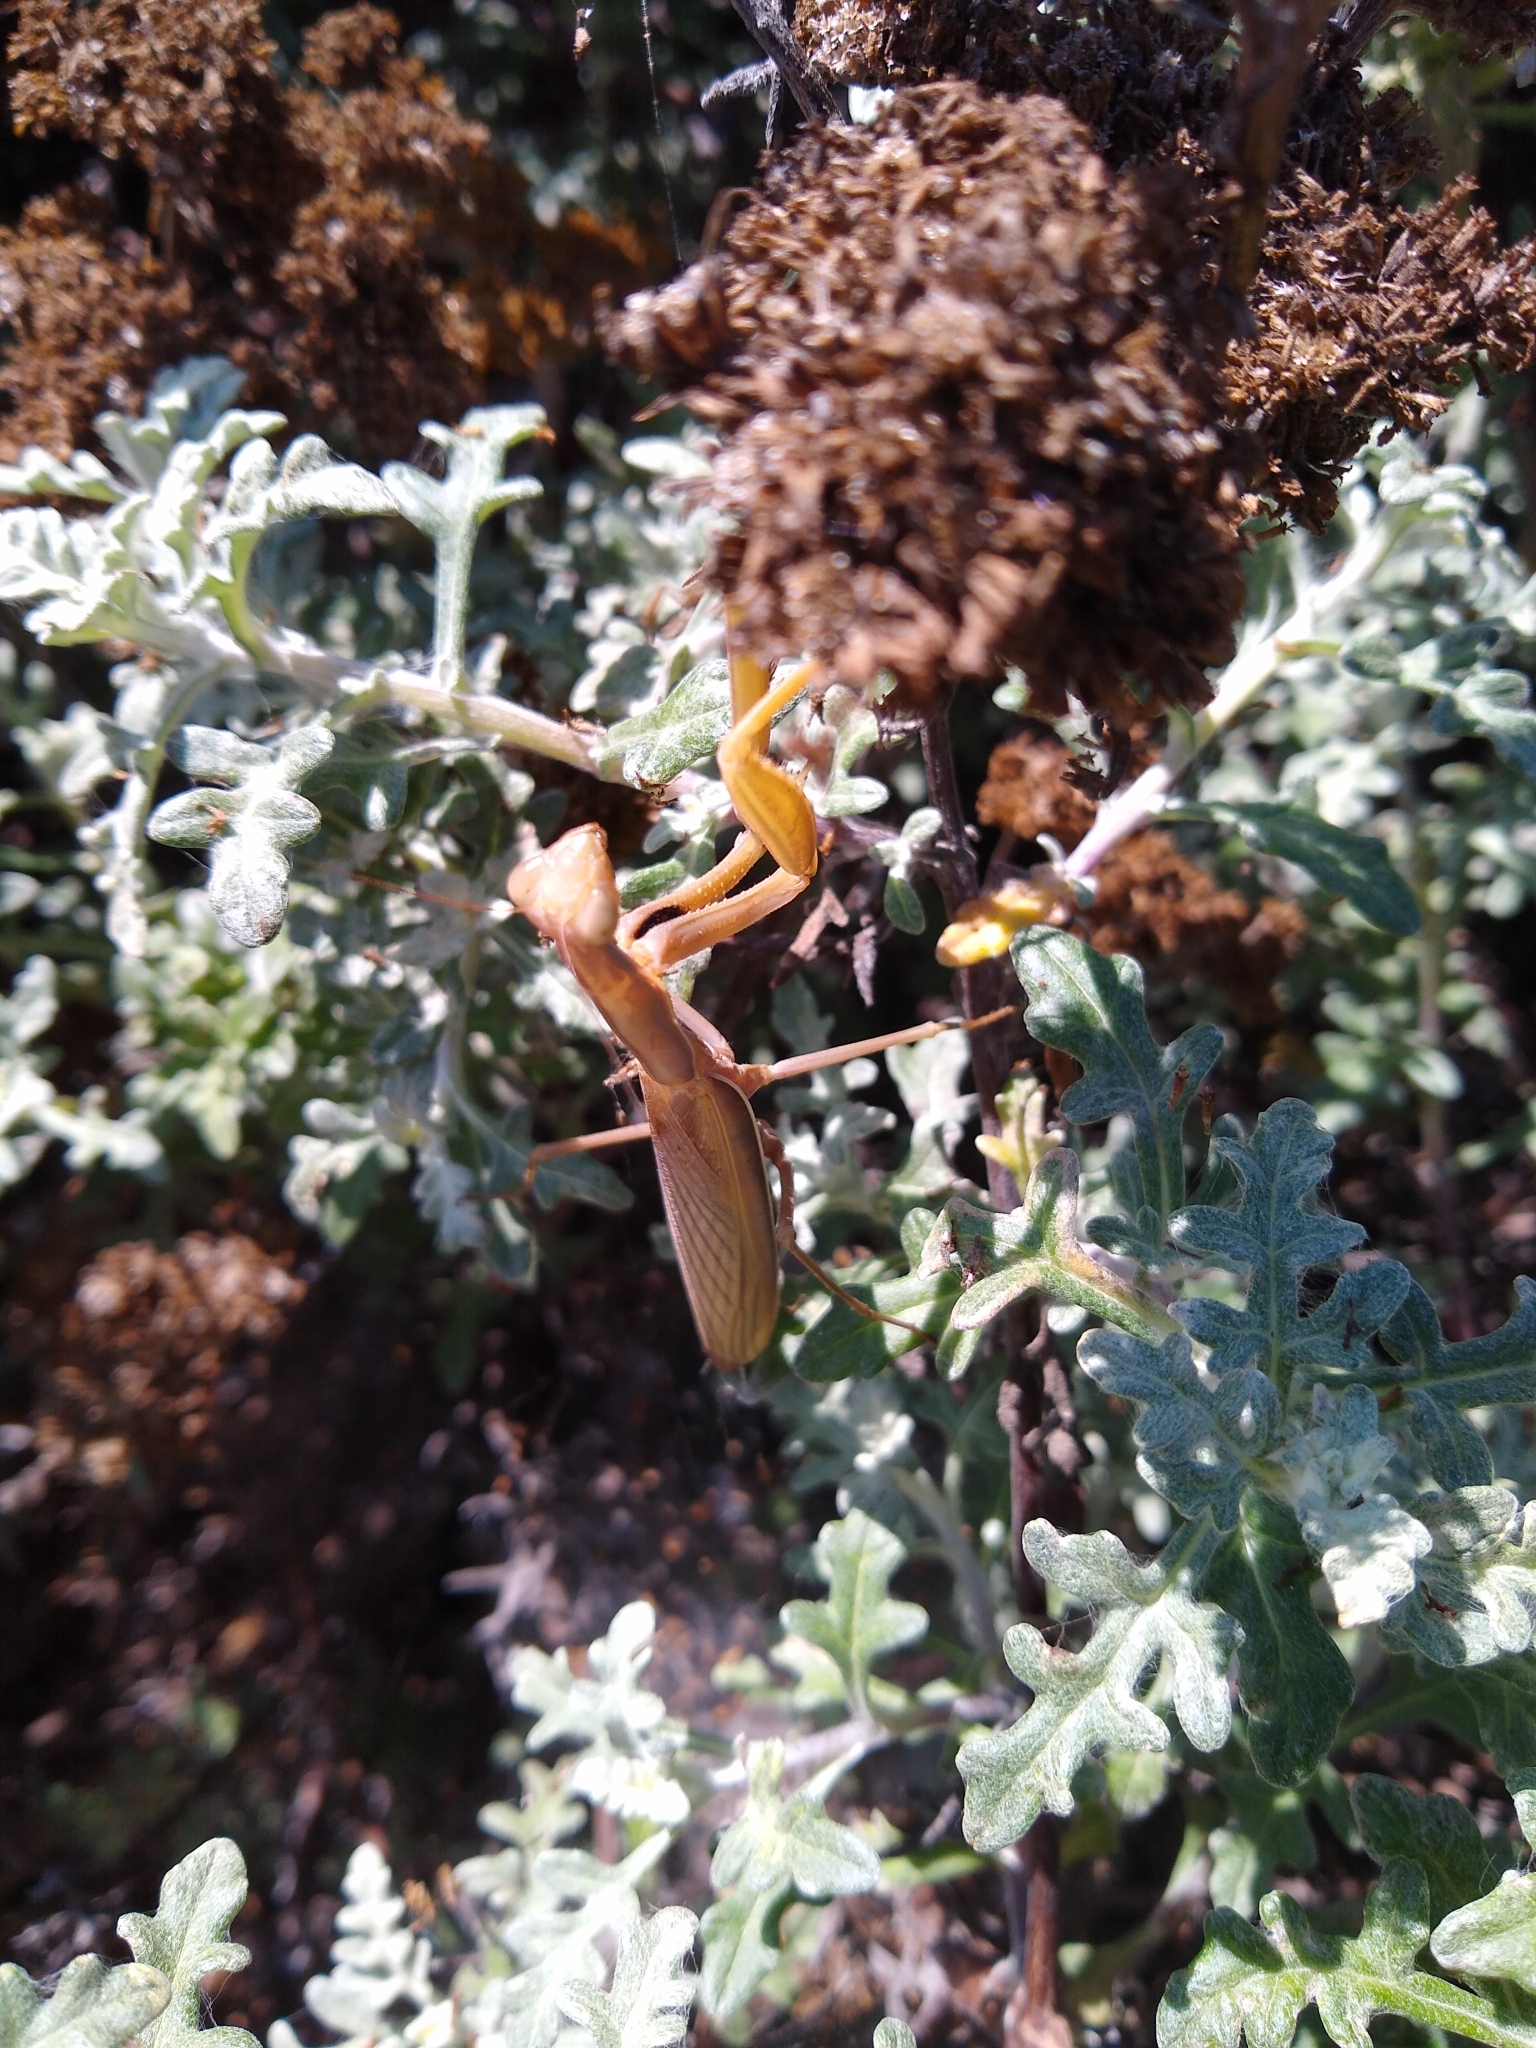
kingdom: Animalia
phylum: Arthropoda
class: Insecta
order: Mantodea
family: Mantidae
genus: Mantis
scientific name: Mantis religiosa
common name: Praying mantis
